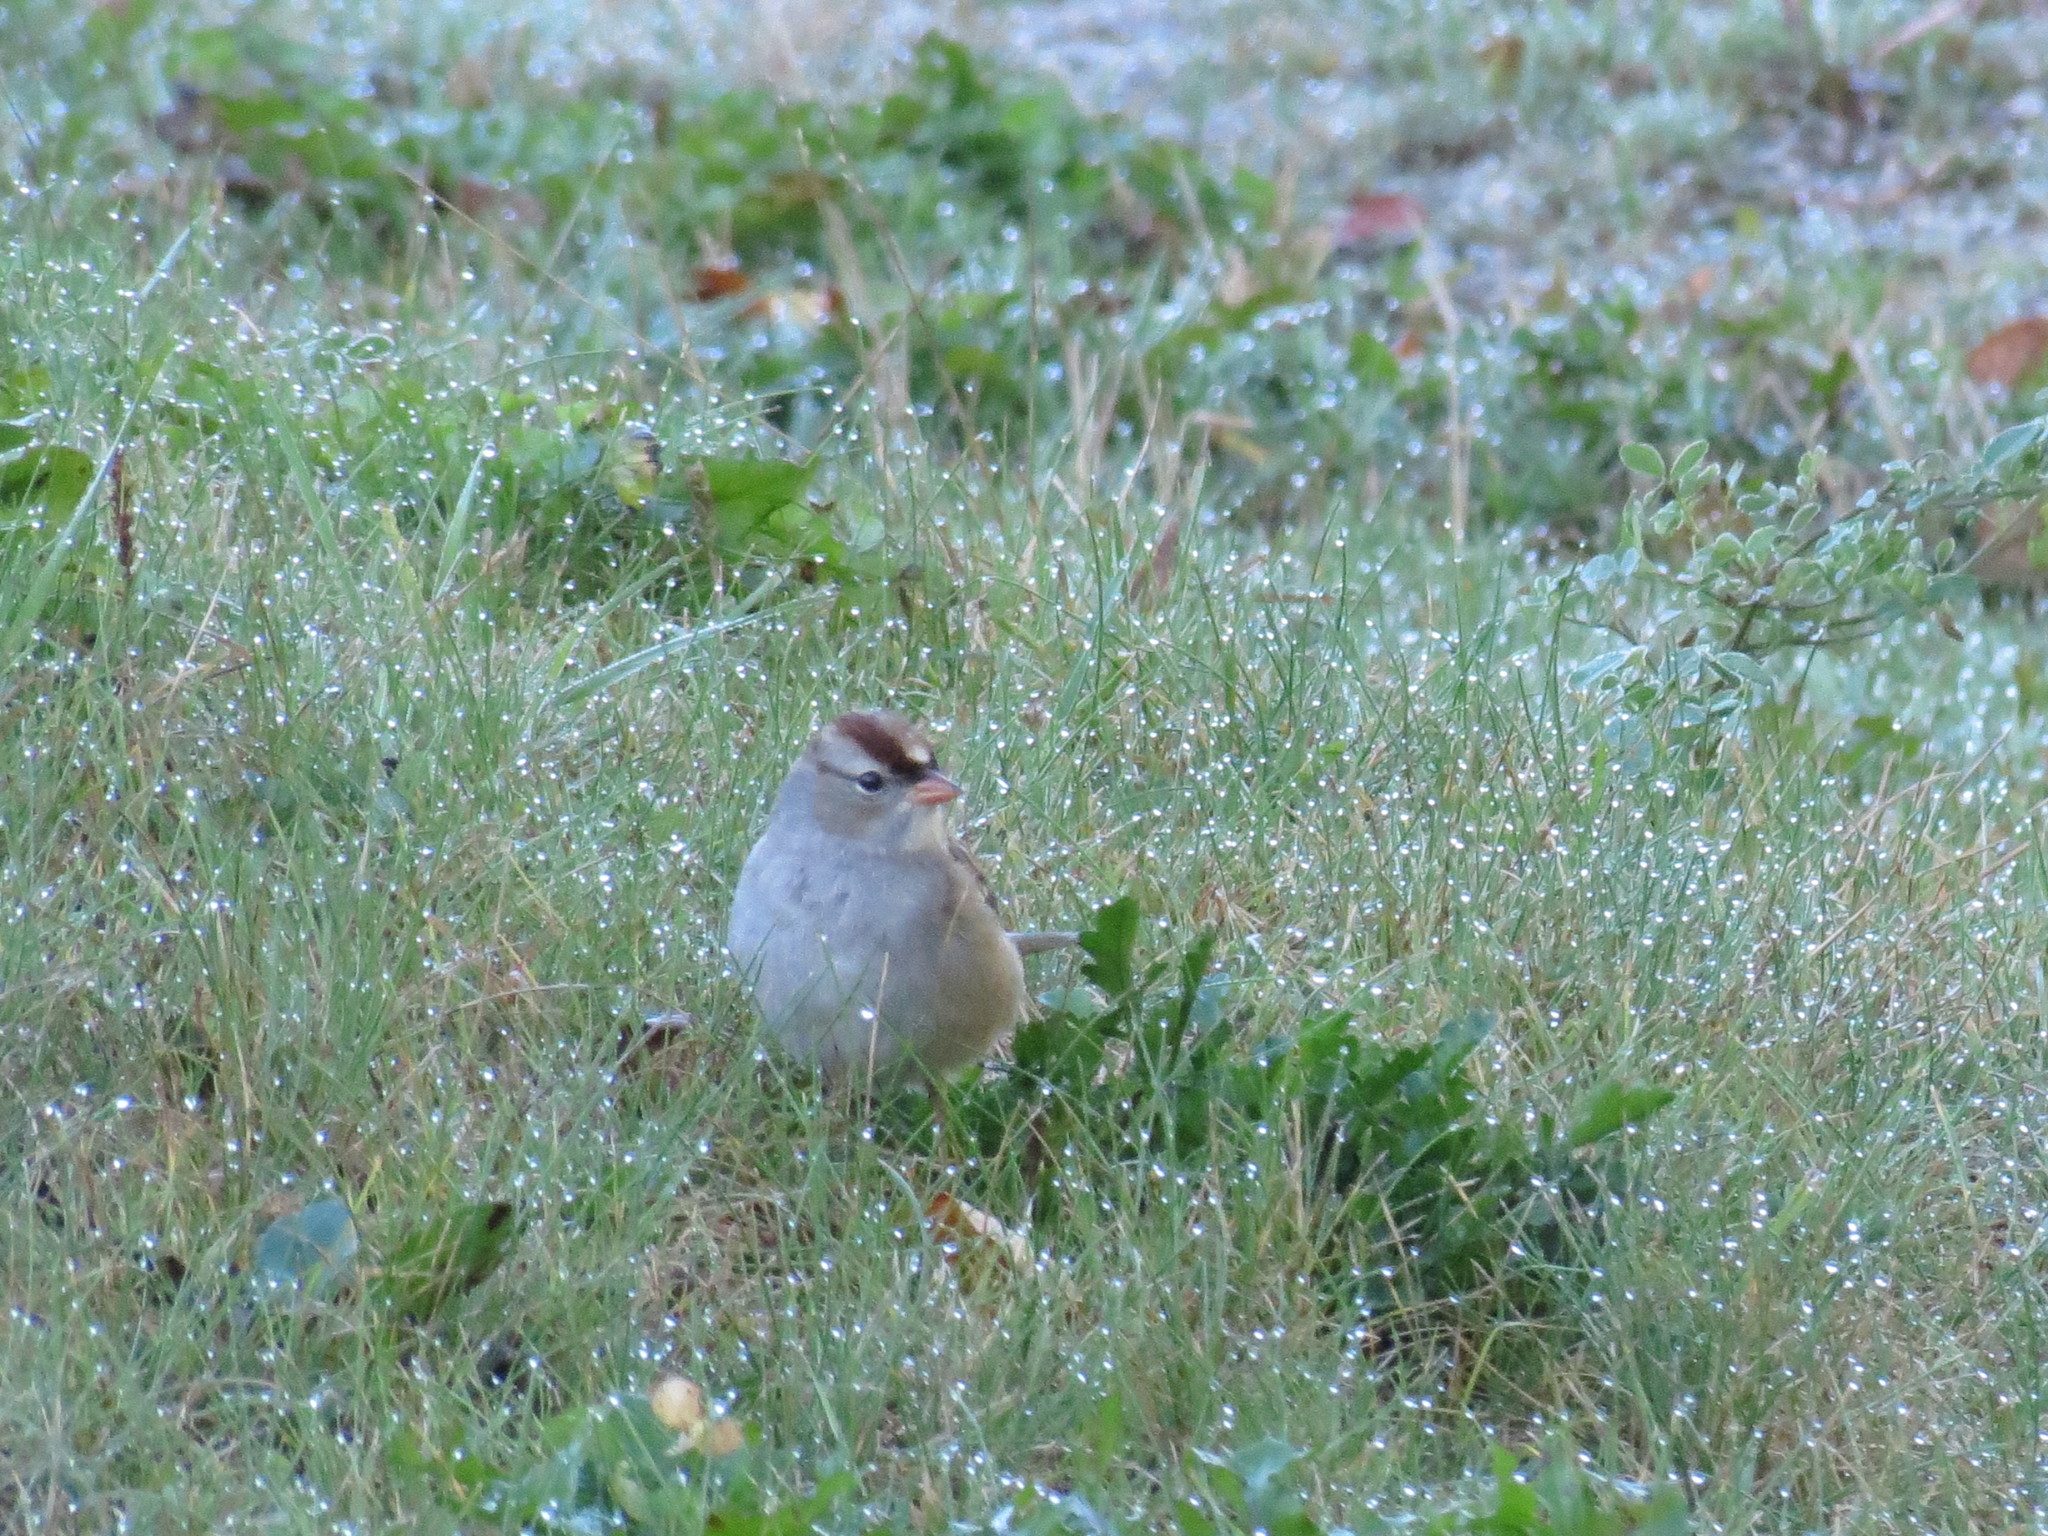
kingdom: Animalia
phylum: Chordata
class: Aves
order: Passeriformes
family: Passerellidae
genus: Zonotrichia
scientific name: Zonotrichia leucophrys
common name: White-crowned sparrow
